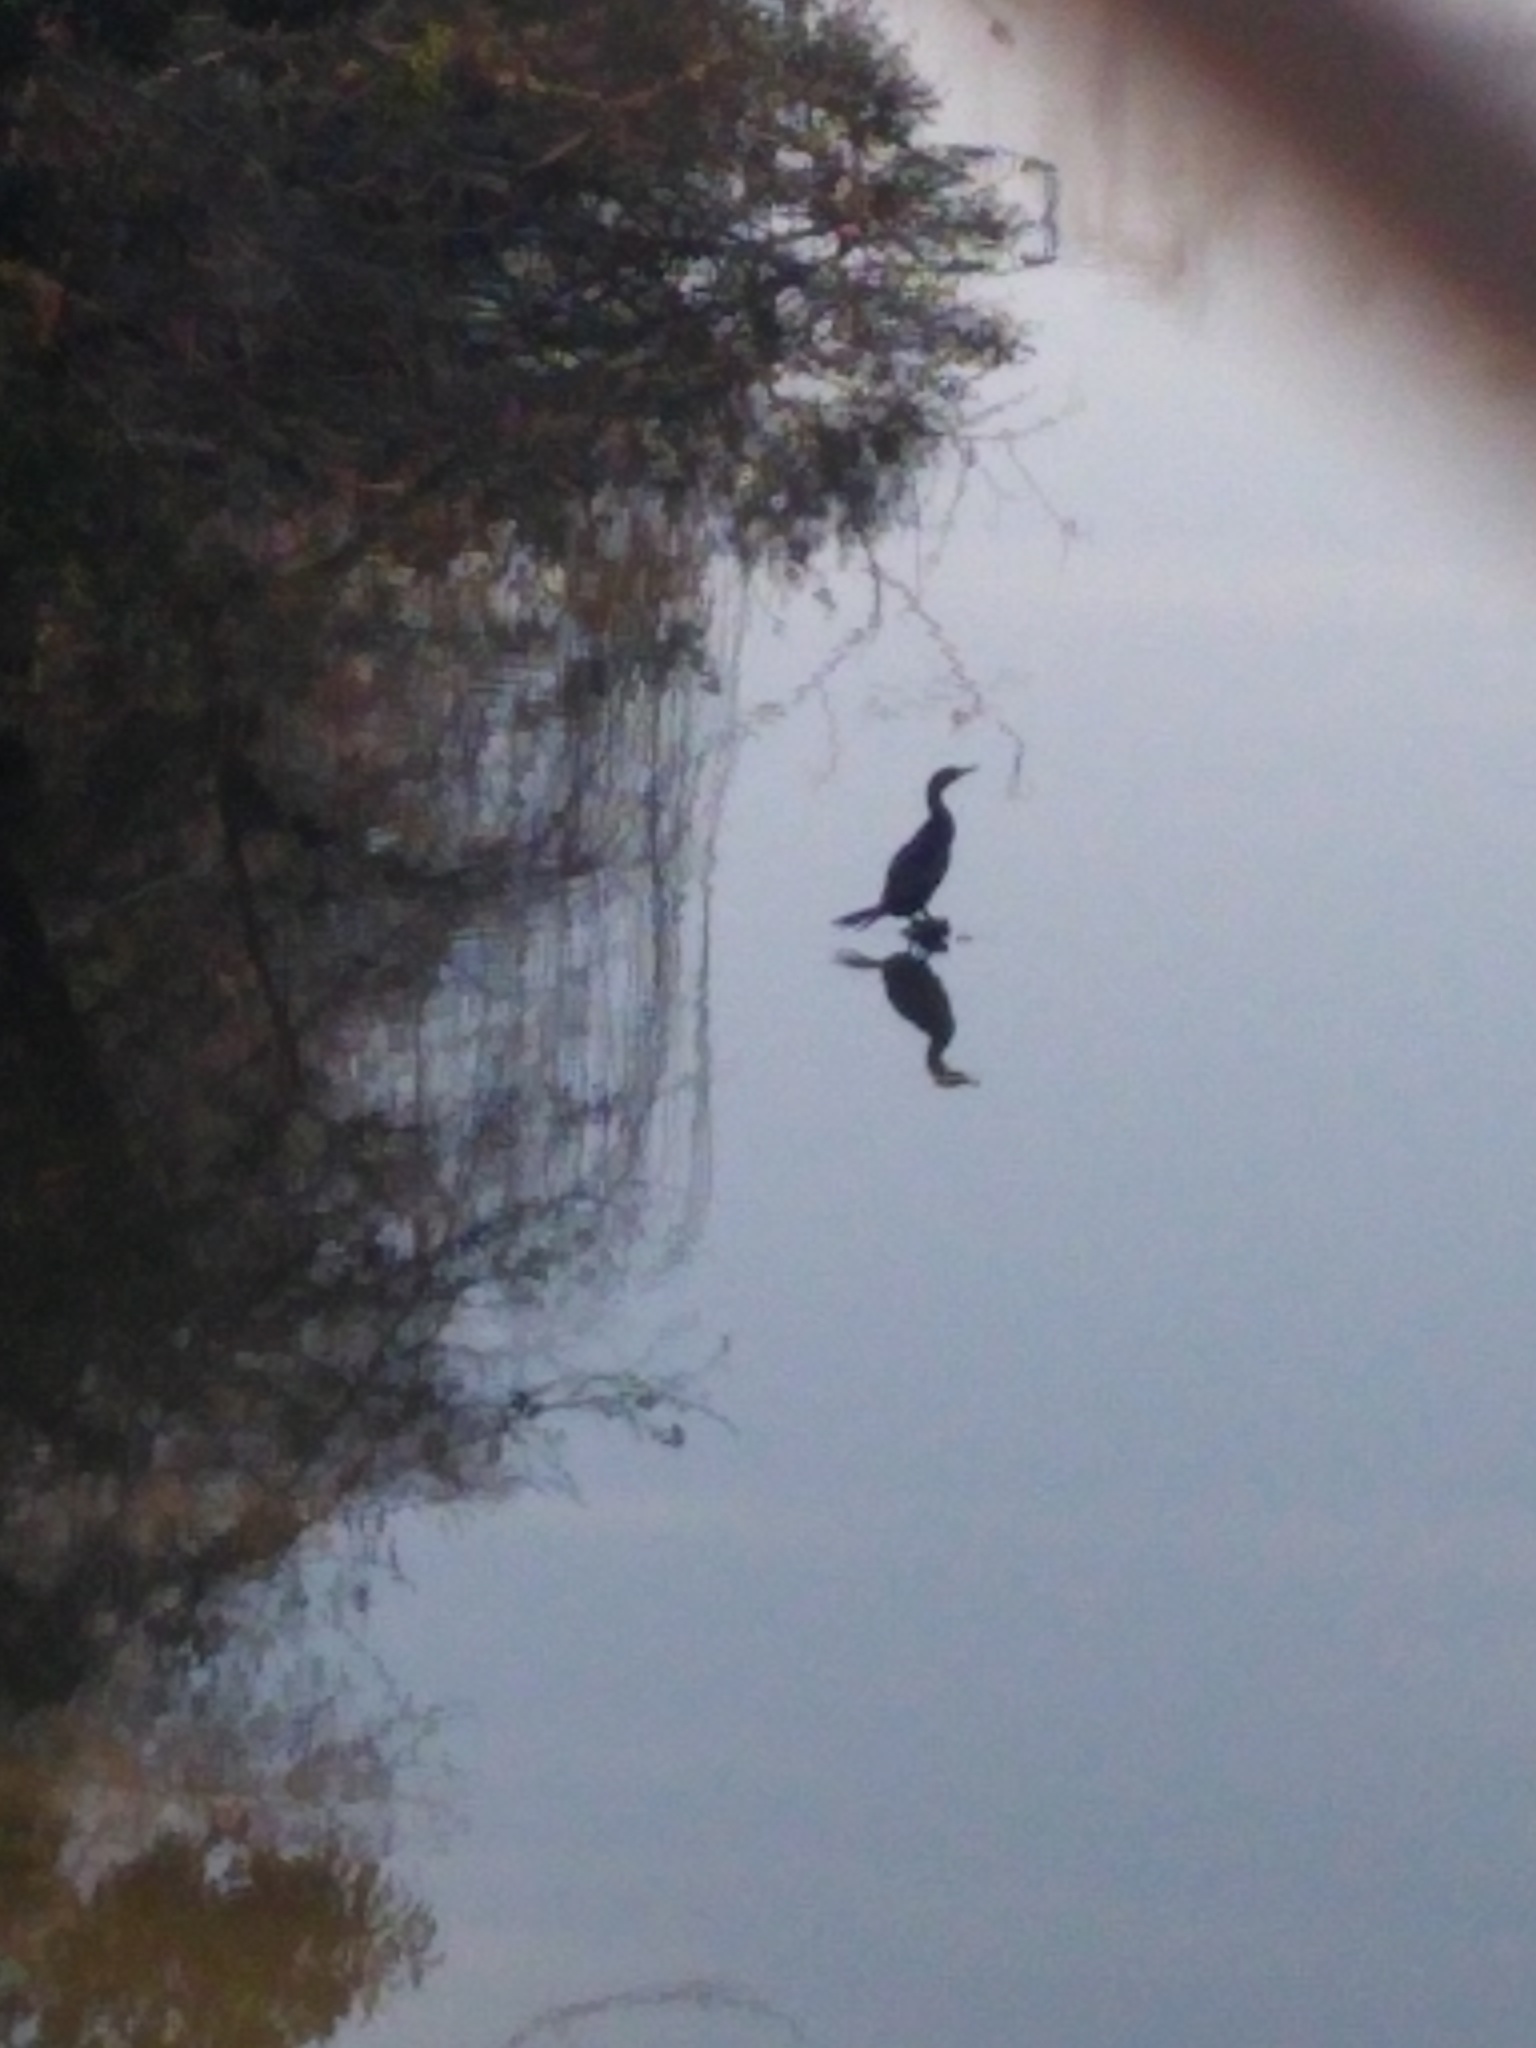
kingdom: Animalia
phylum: Chordata
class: Aves
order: Suliformes
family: Phalacrocoracidae
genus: Phalacrocorax
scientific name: Phalacrocorax brasilianus
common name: Neotropic cormorant
